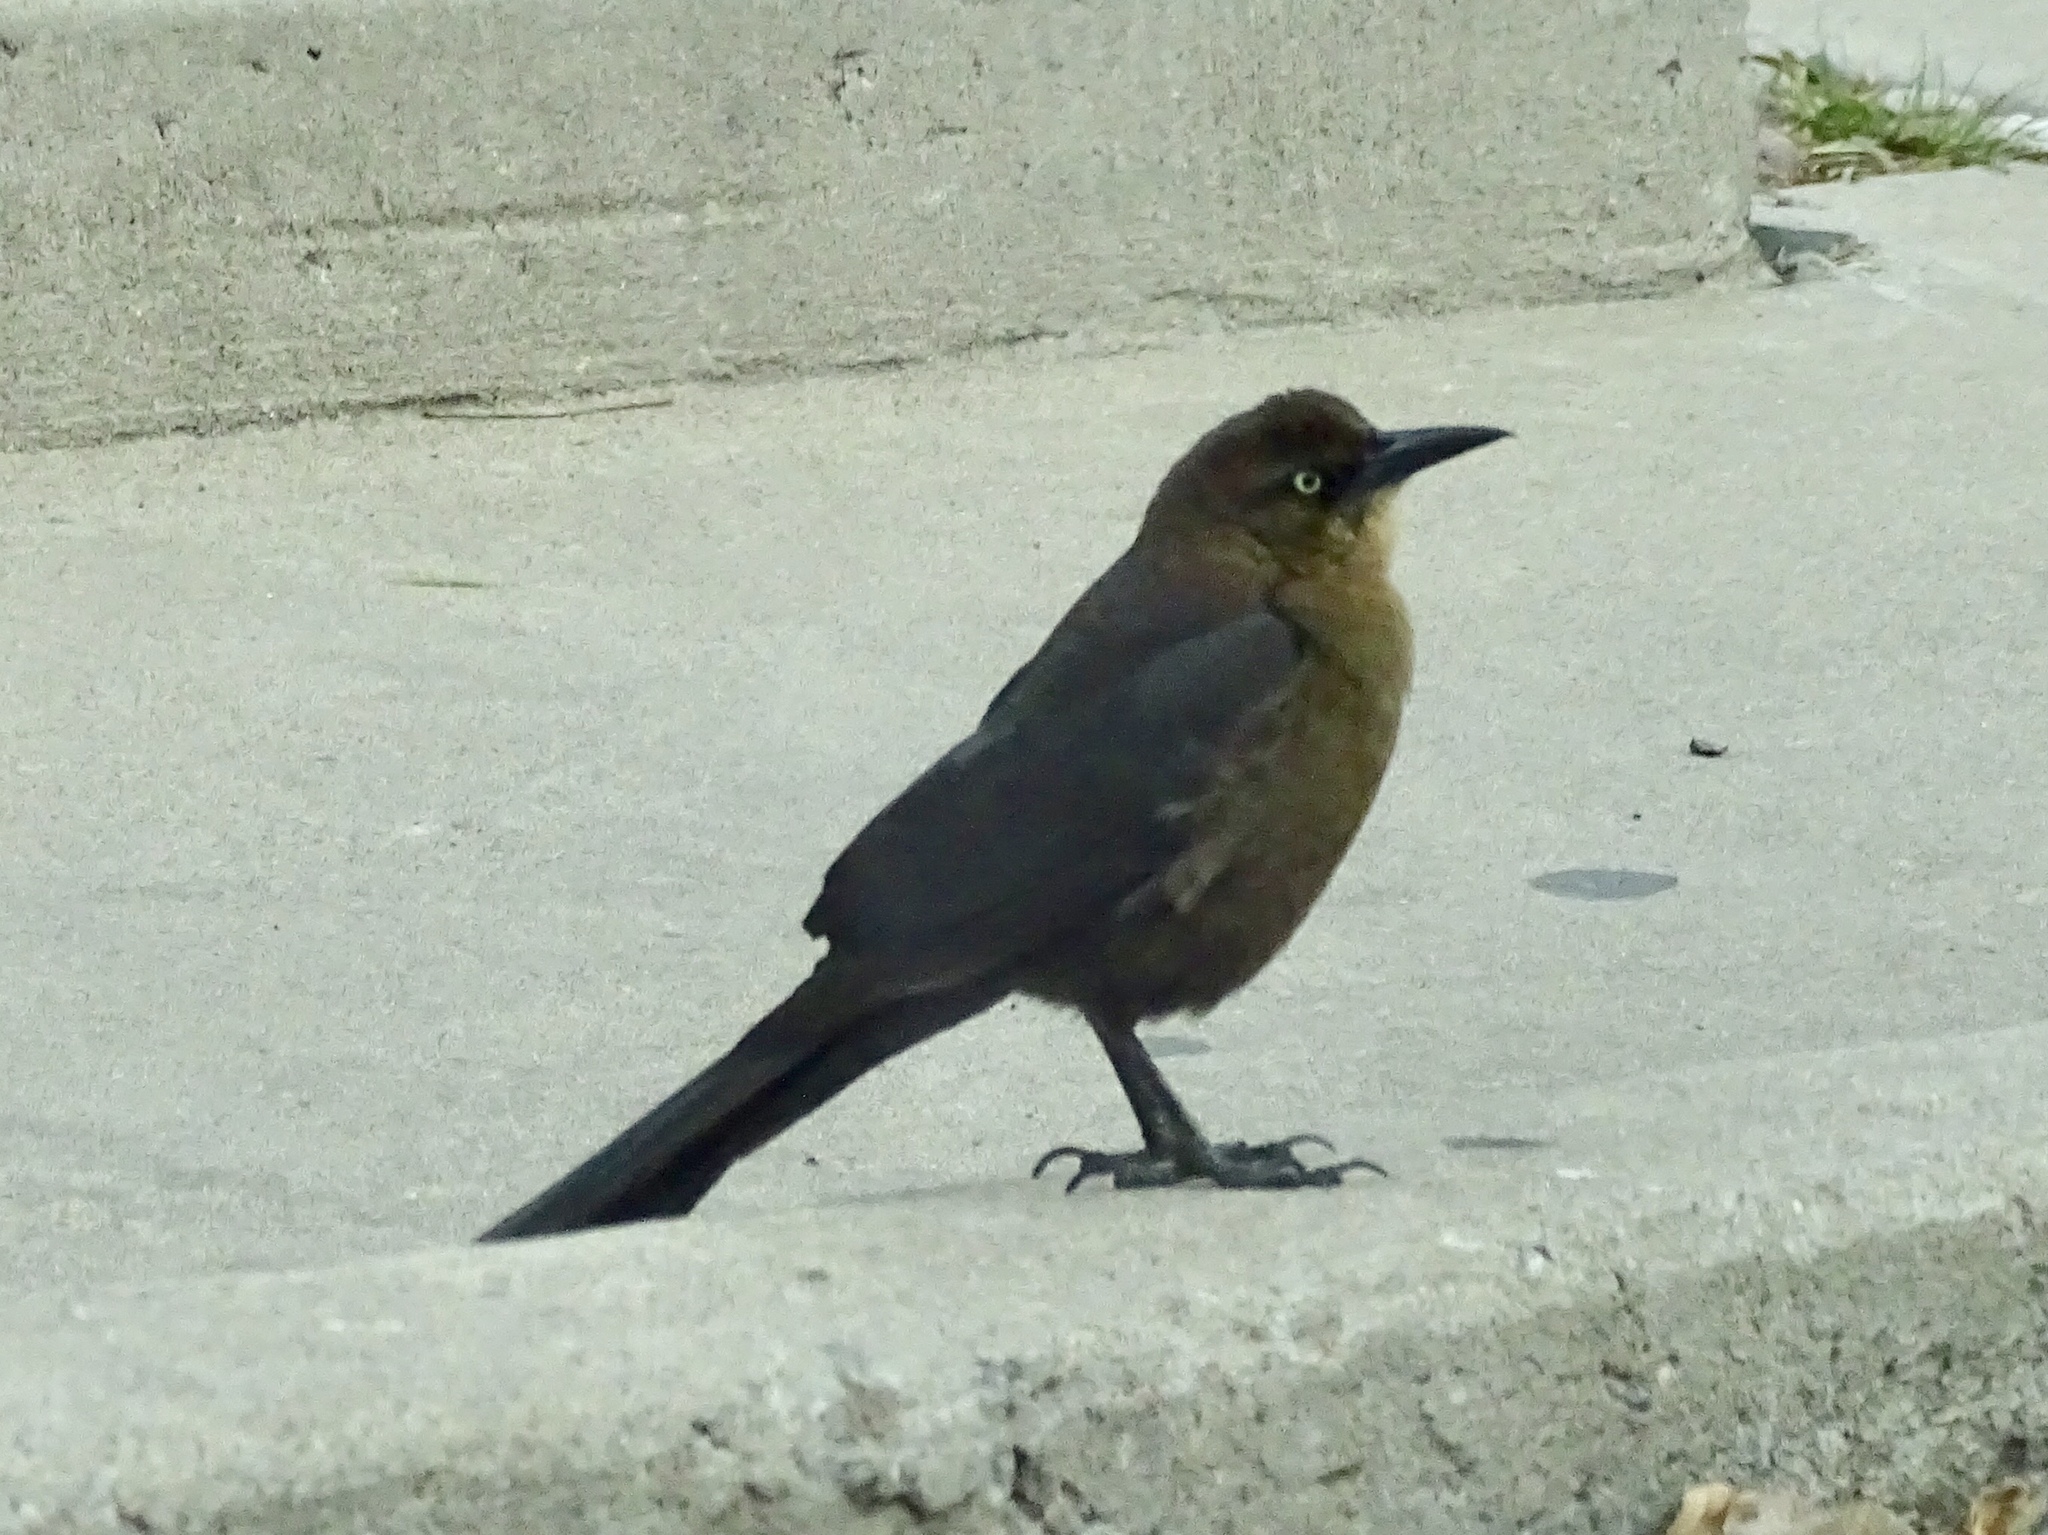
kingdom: Animalia
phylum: Chordata
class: Aves
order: Passeriformes
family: Icteridae
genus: Quiscalus
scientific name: Quiscalus mexicanus
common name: Great-tailed grackle
